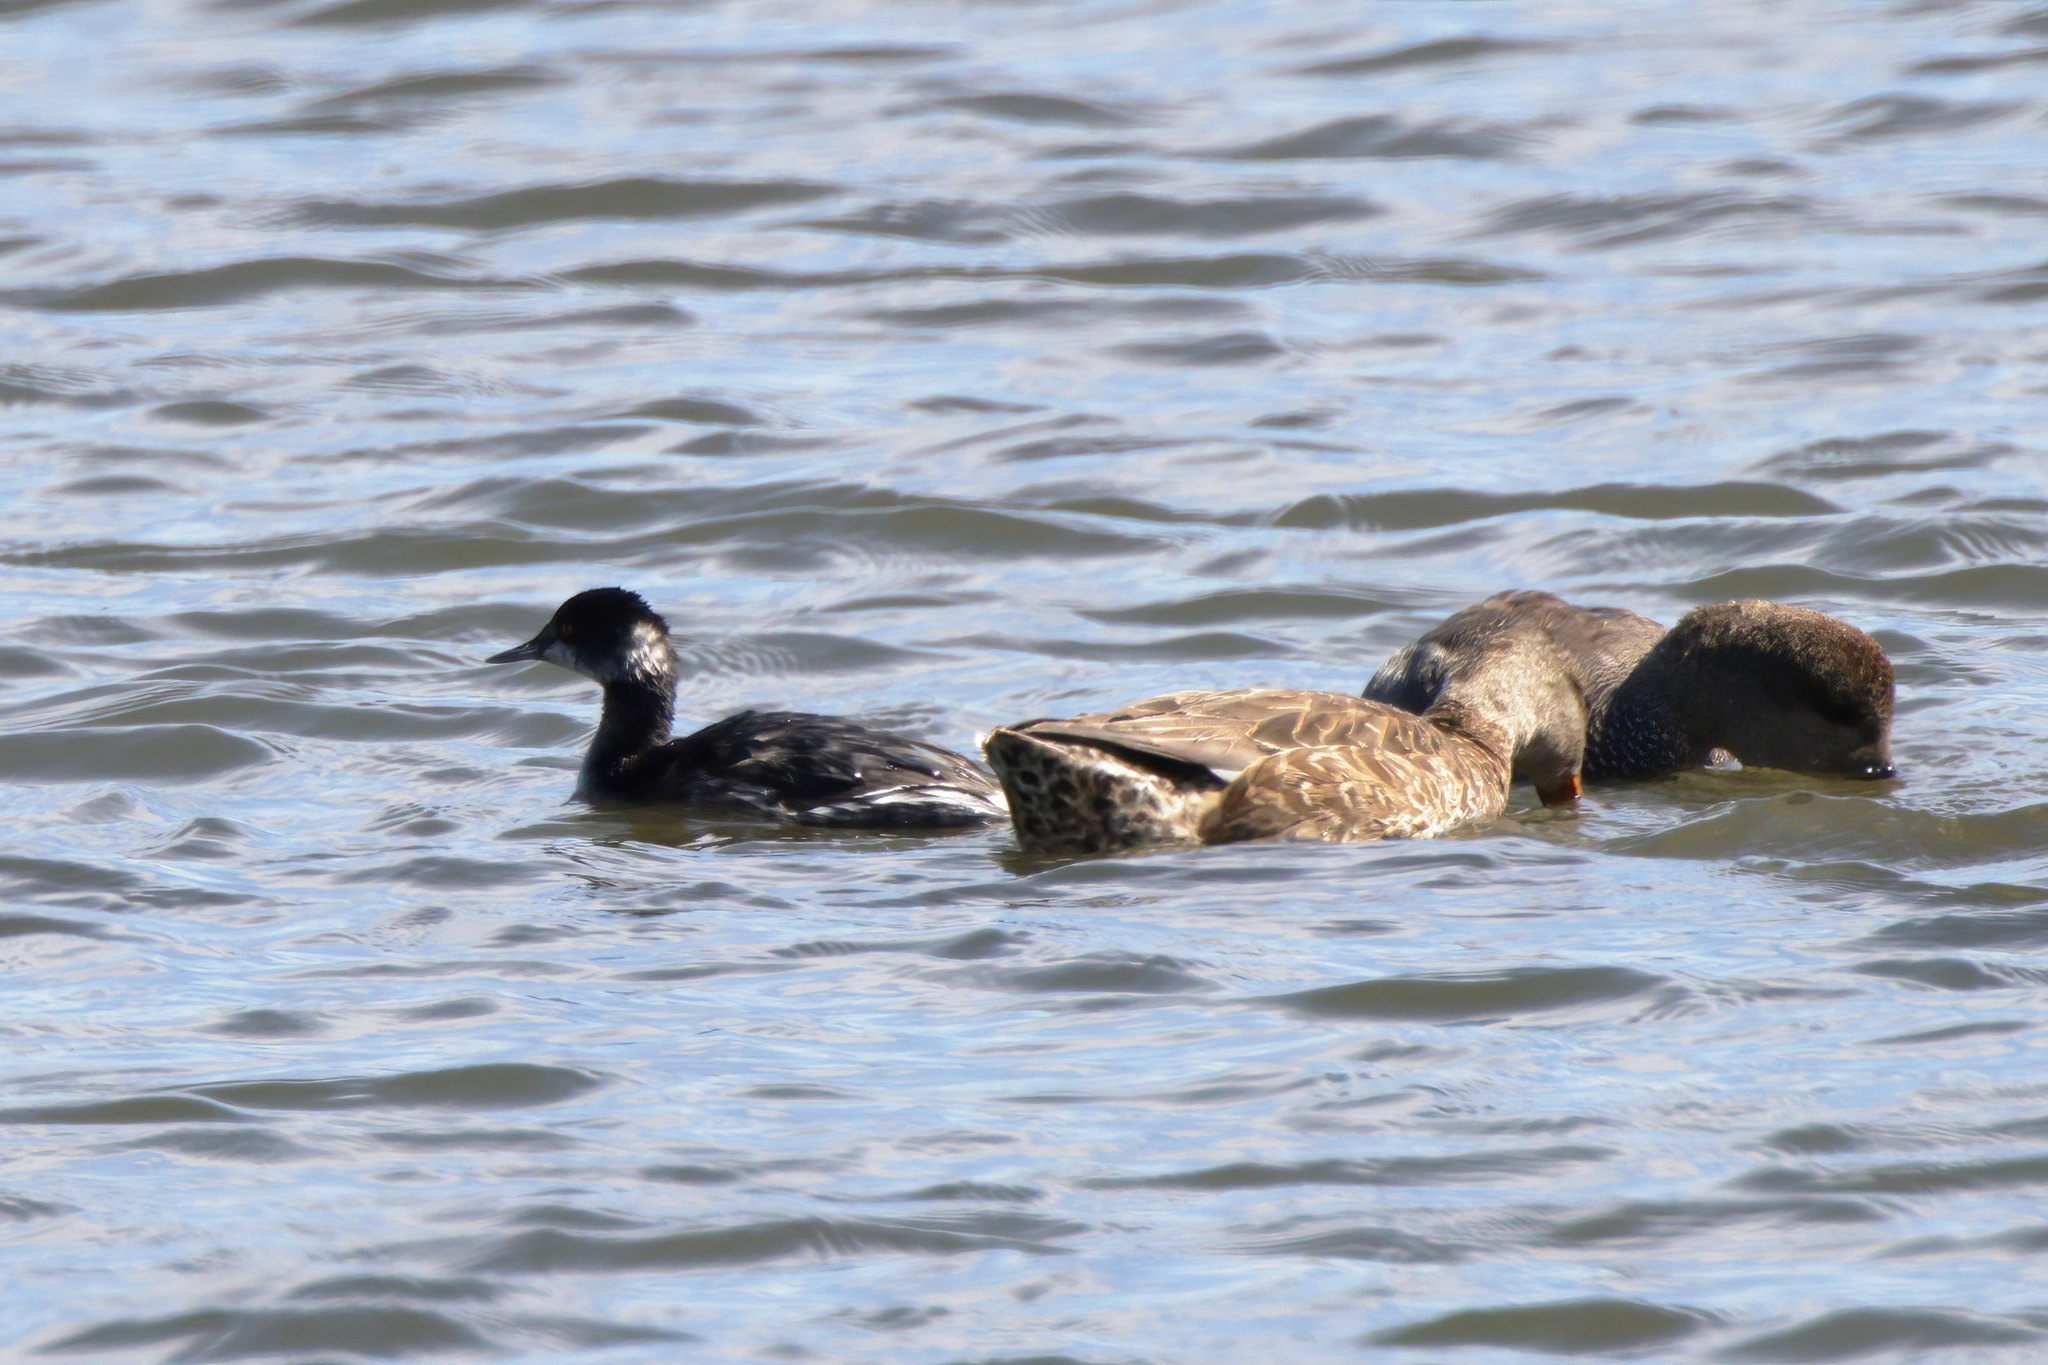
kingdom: Animalia
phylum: Chordata
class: Aves
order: Podicipediformes
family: Podicipedidae
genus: Podiceps
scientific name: Podiceps nigricollis
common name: Black-necked grebe
